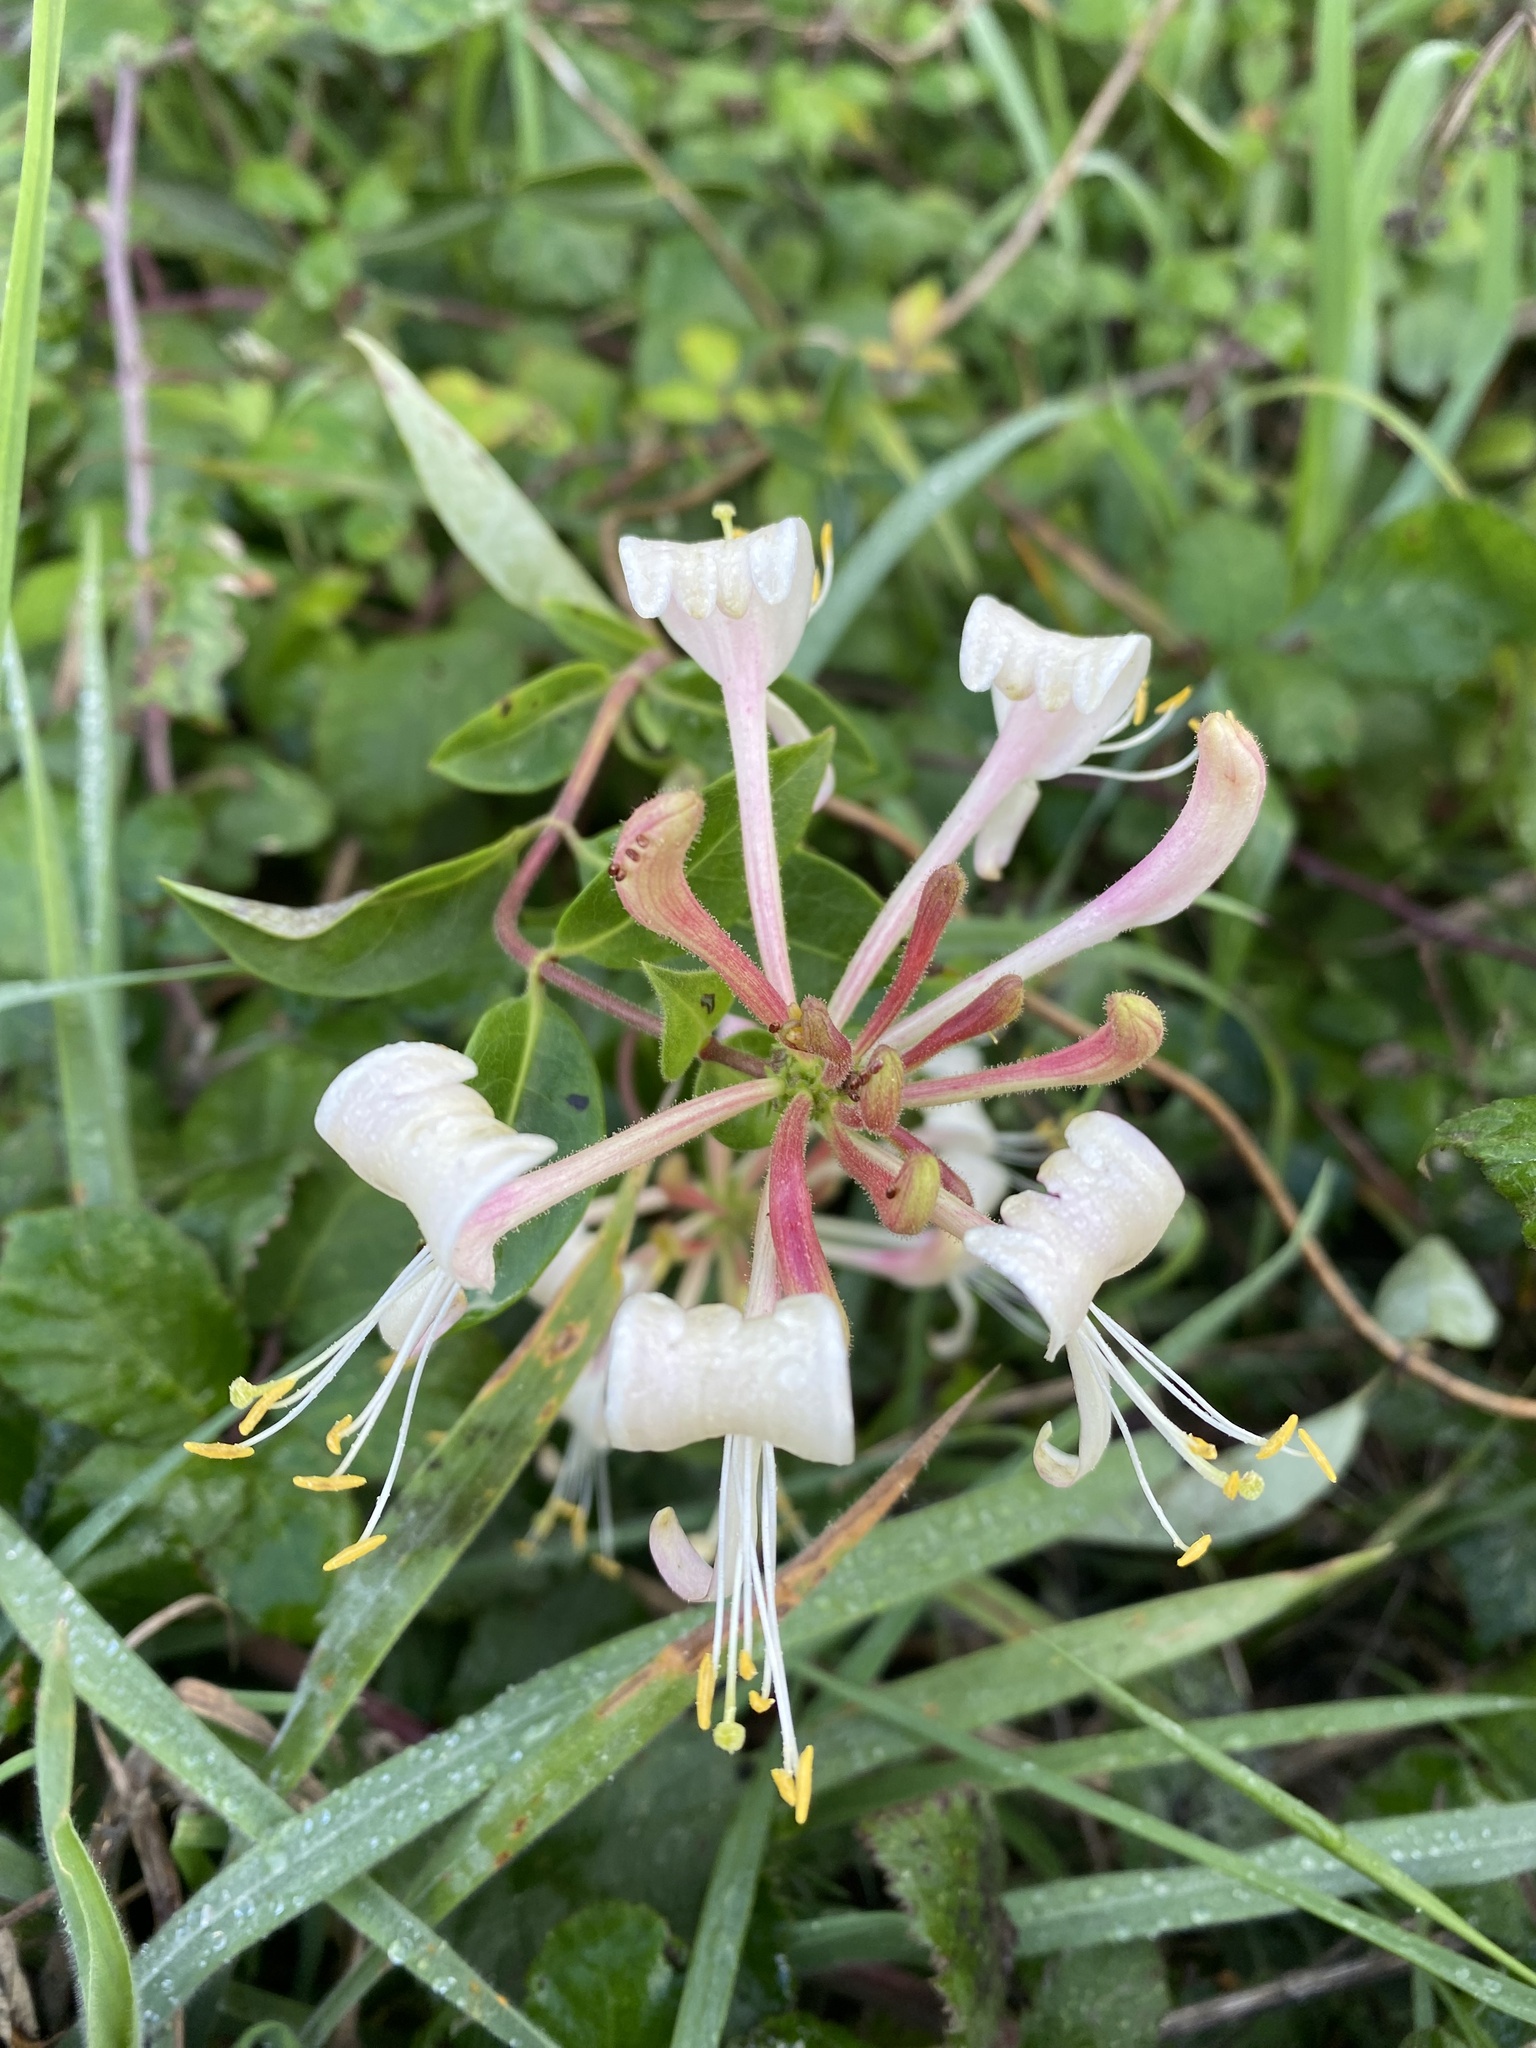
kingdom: Plantae
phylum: Tracheophyta
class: Magnoliopsida
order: Dipsacales
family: Caprifoliaceae
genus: Lonicera
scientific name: Lonicera periclymenum
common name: European honeysuckle
